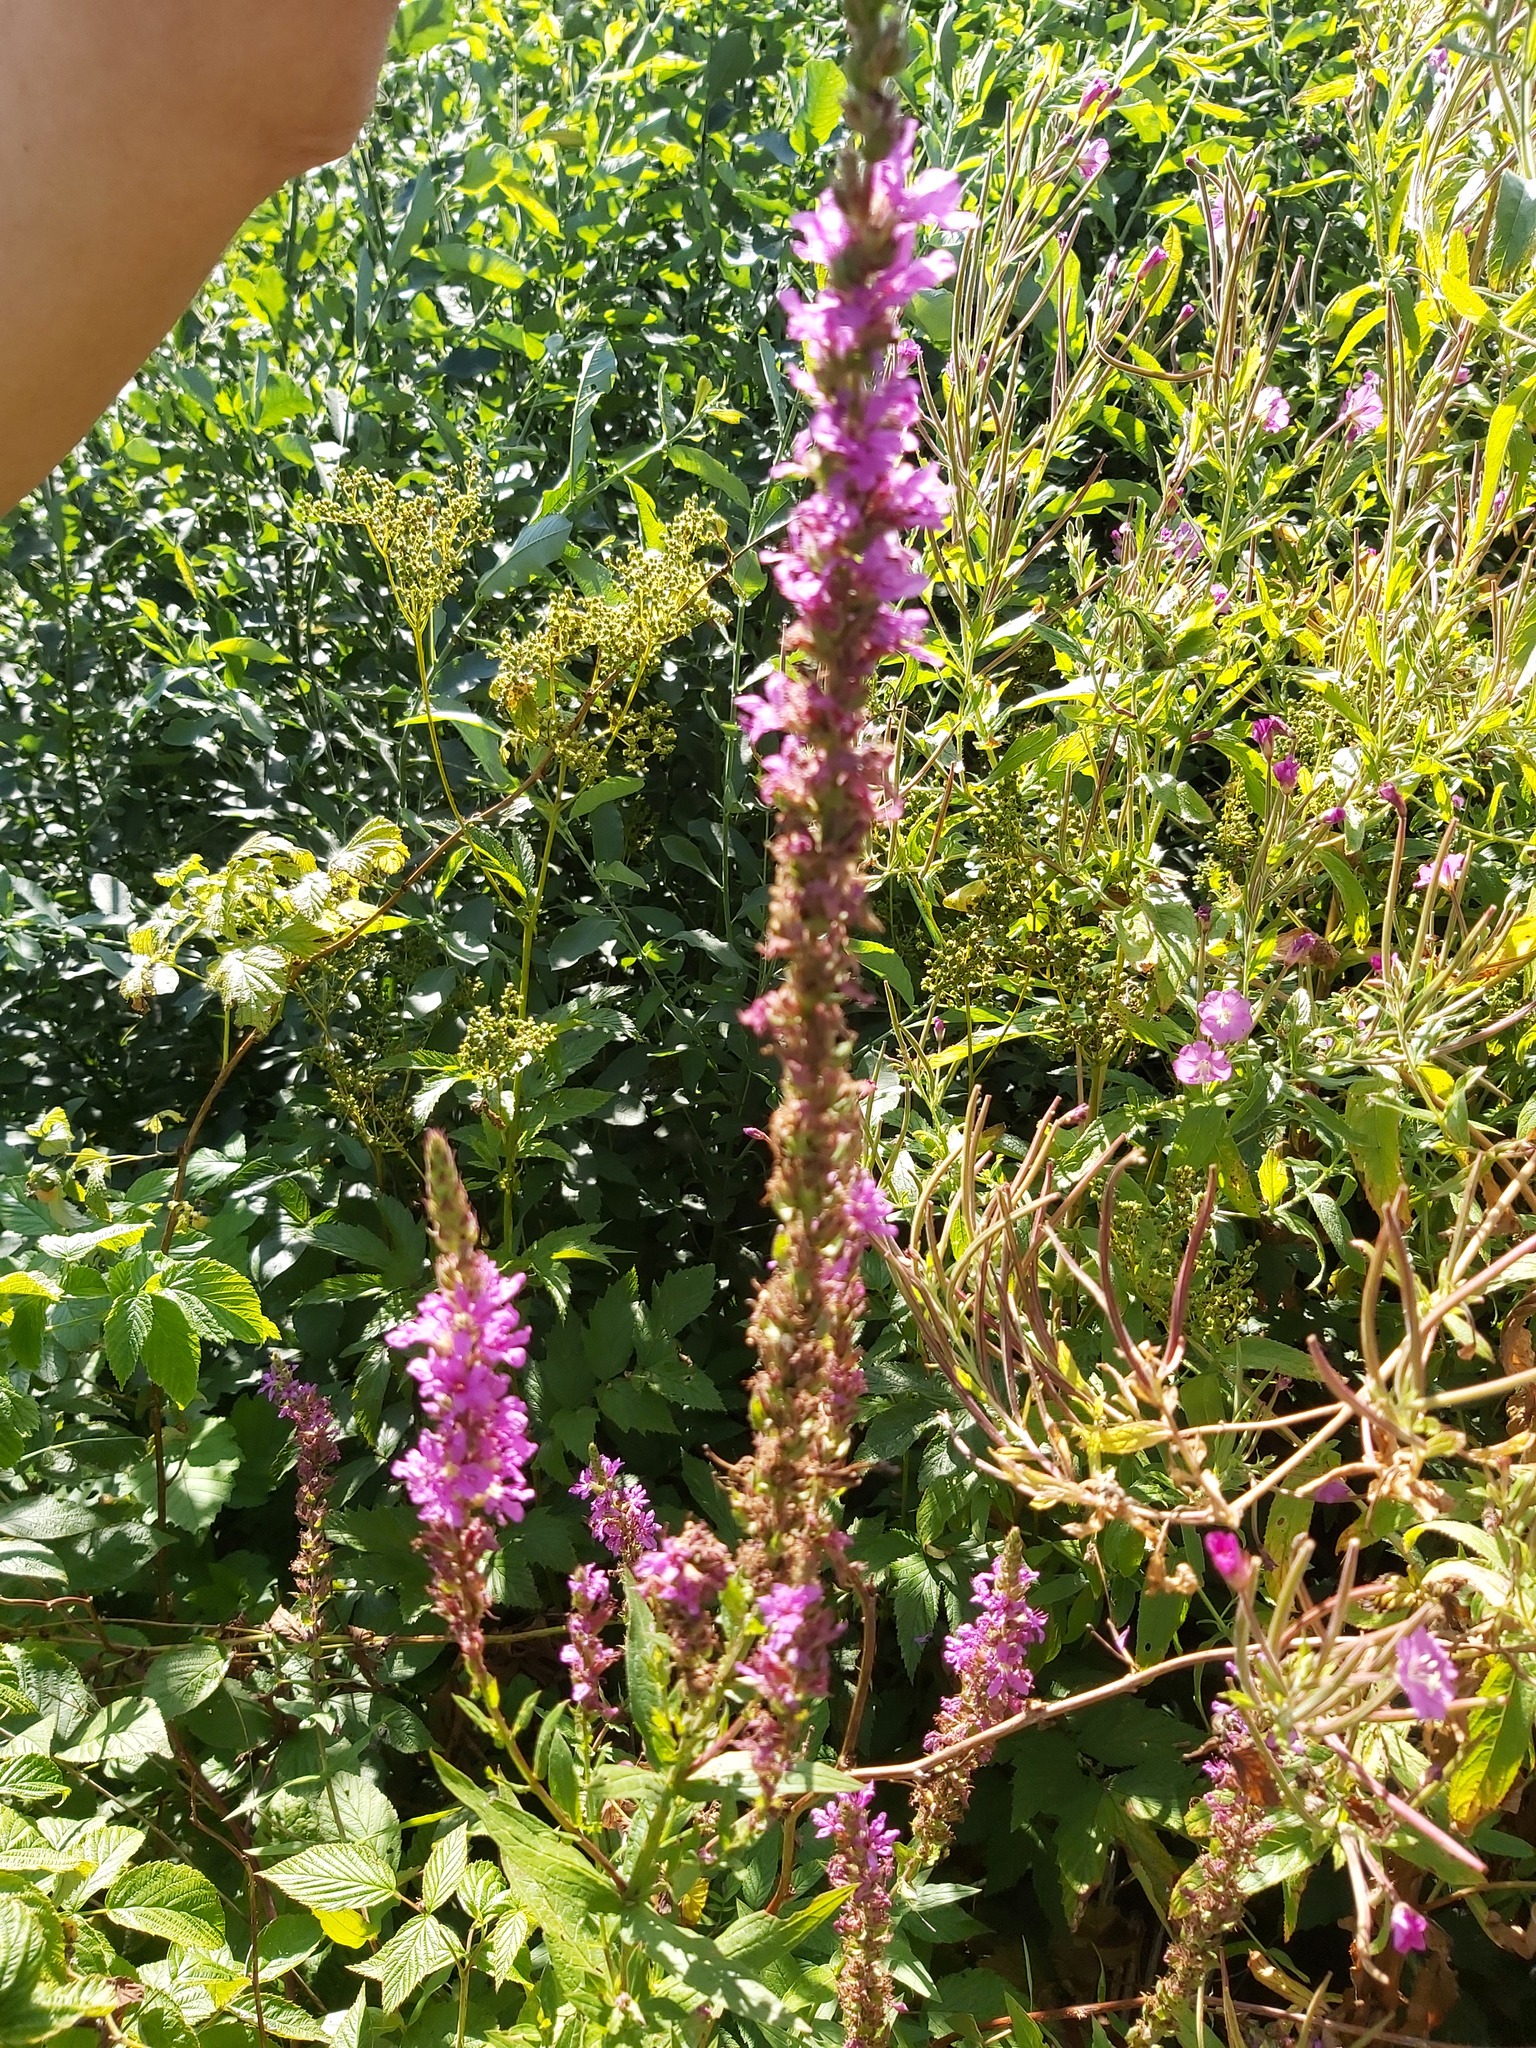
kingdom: Plantae
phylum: Tracheophyta
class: Magnoliopsida
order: Myrtales
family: Lythraceae
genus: Lythrum
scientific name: Lythrum salicaria
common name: Purple loosestrife
